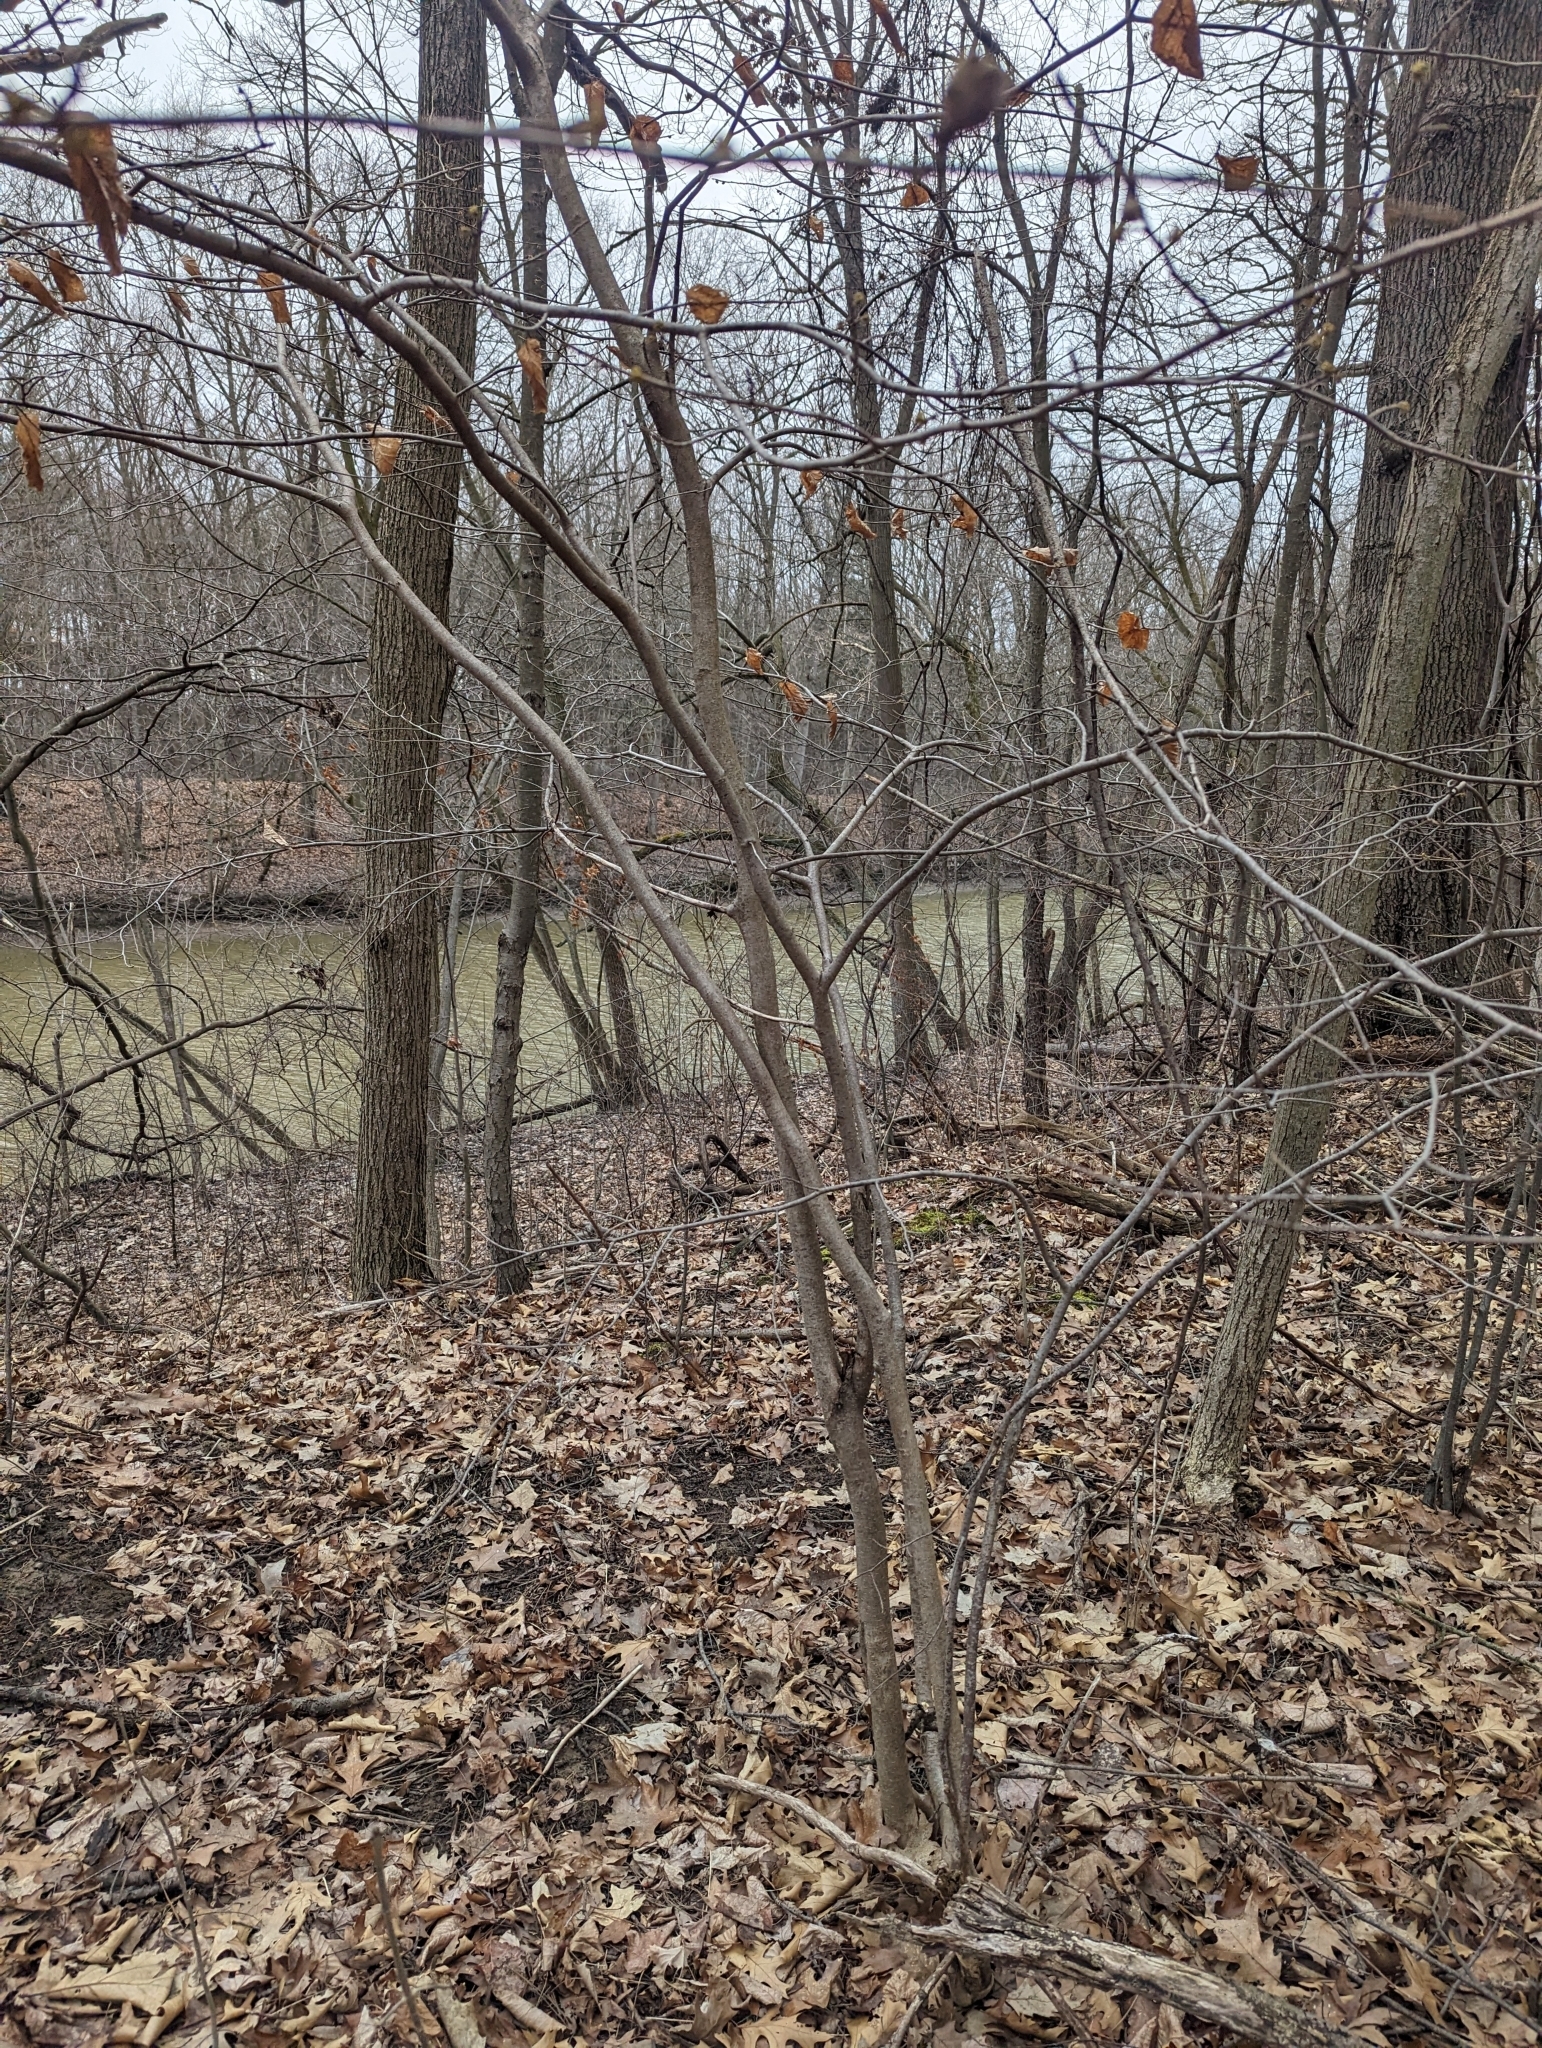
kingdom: Plantae
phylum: Tracheophyta
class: Magnoliopsida
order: Saxifragales
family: Hamamelidaceae
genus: Hamamelis
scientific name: Hamamelis virginiana
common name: Witch-hazel
